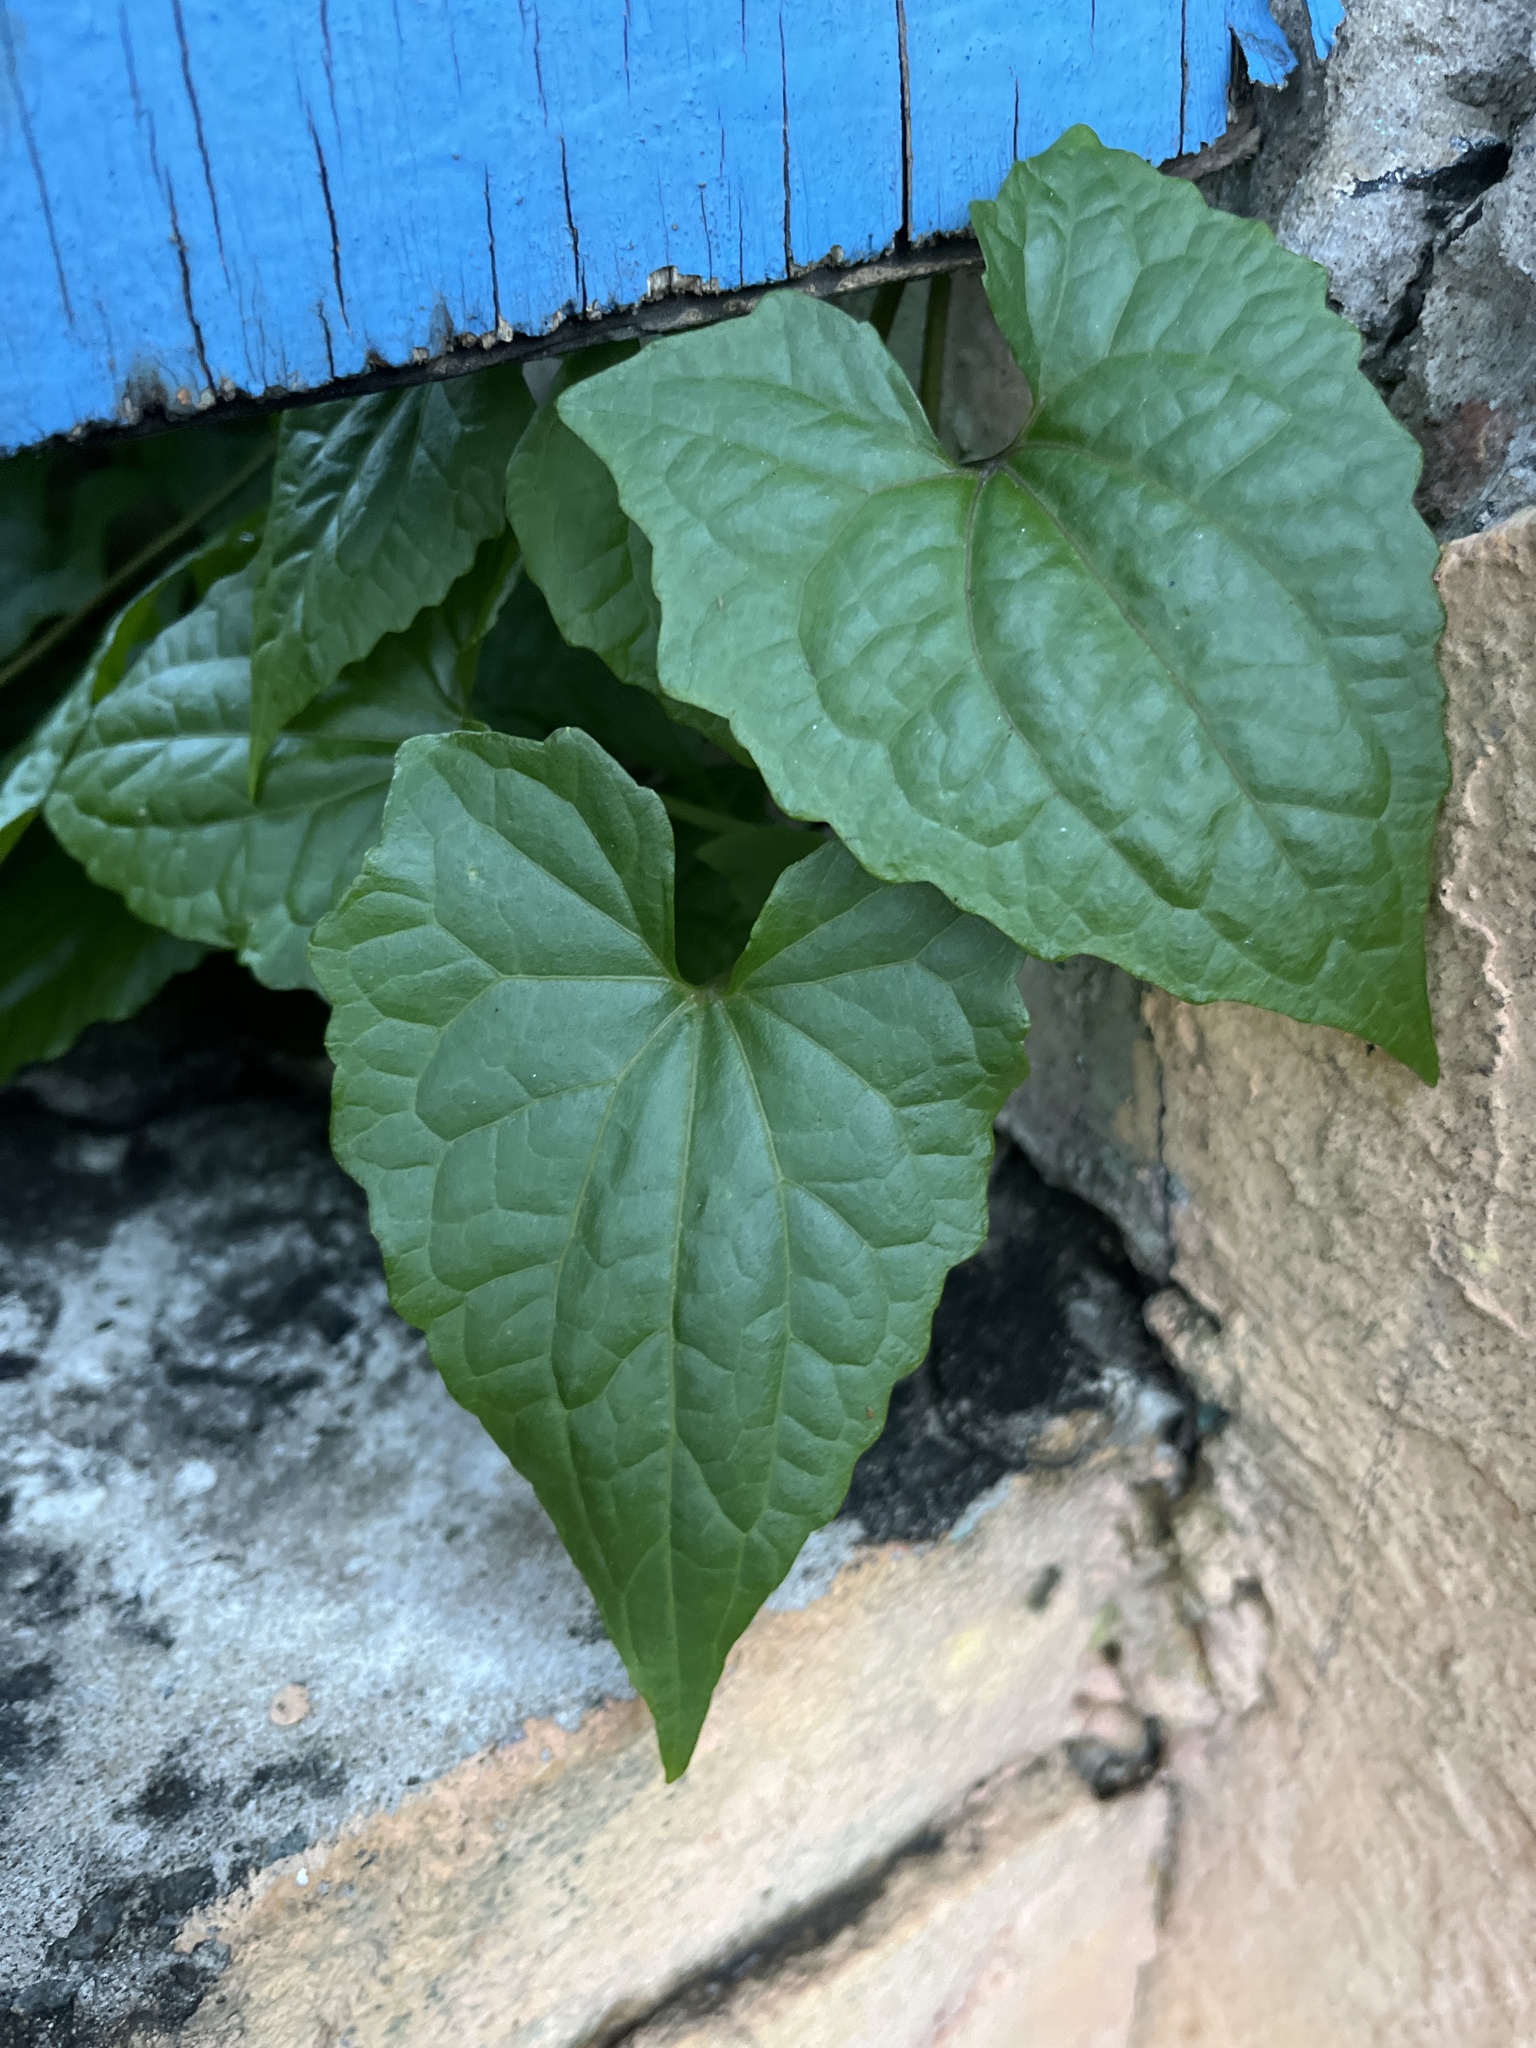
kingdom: Plantae
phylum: Tracheophyta
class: Magnoliopsida
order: Asterales
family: Asteraceae
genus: Mikania
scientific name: Mikania micrantha
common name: Mile-a-minute
